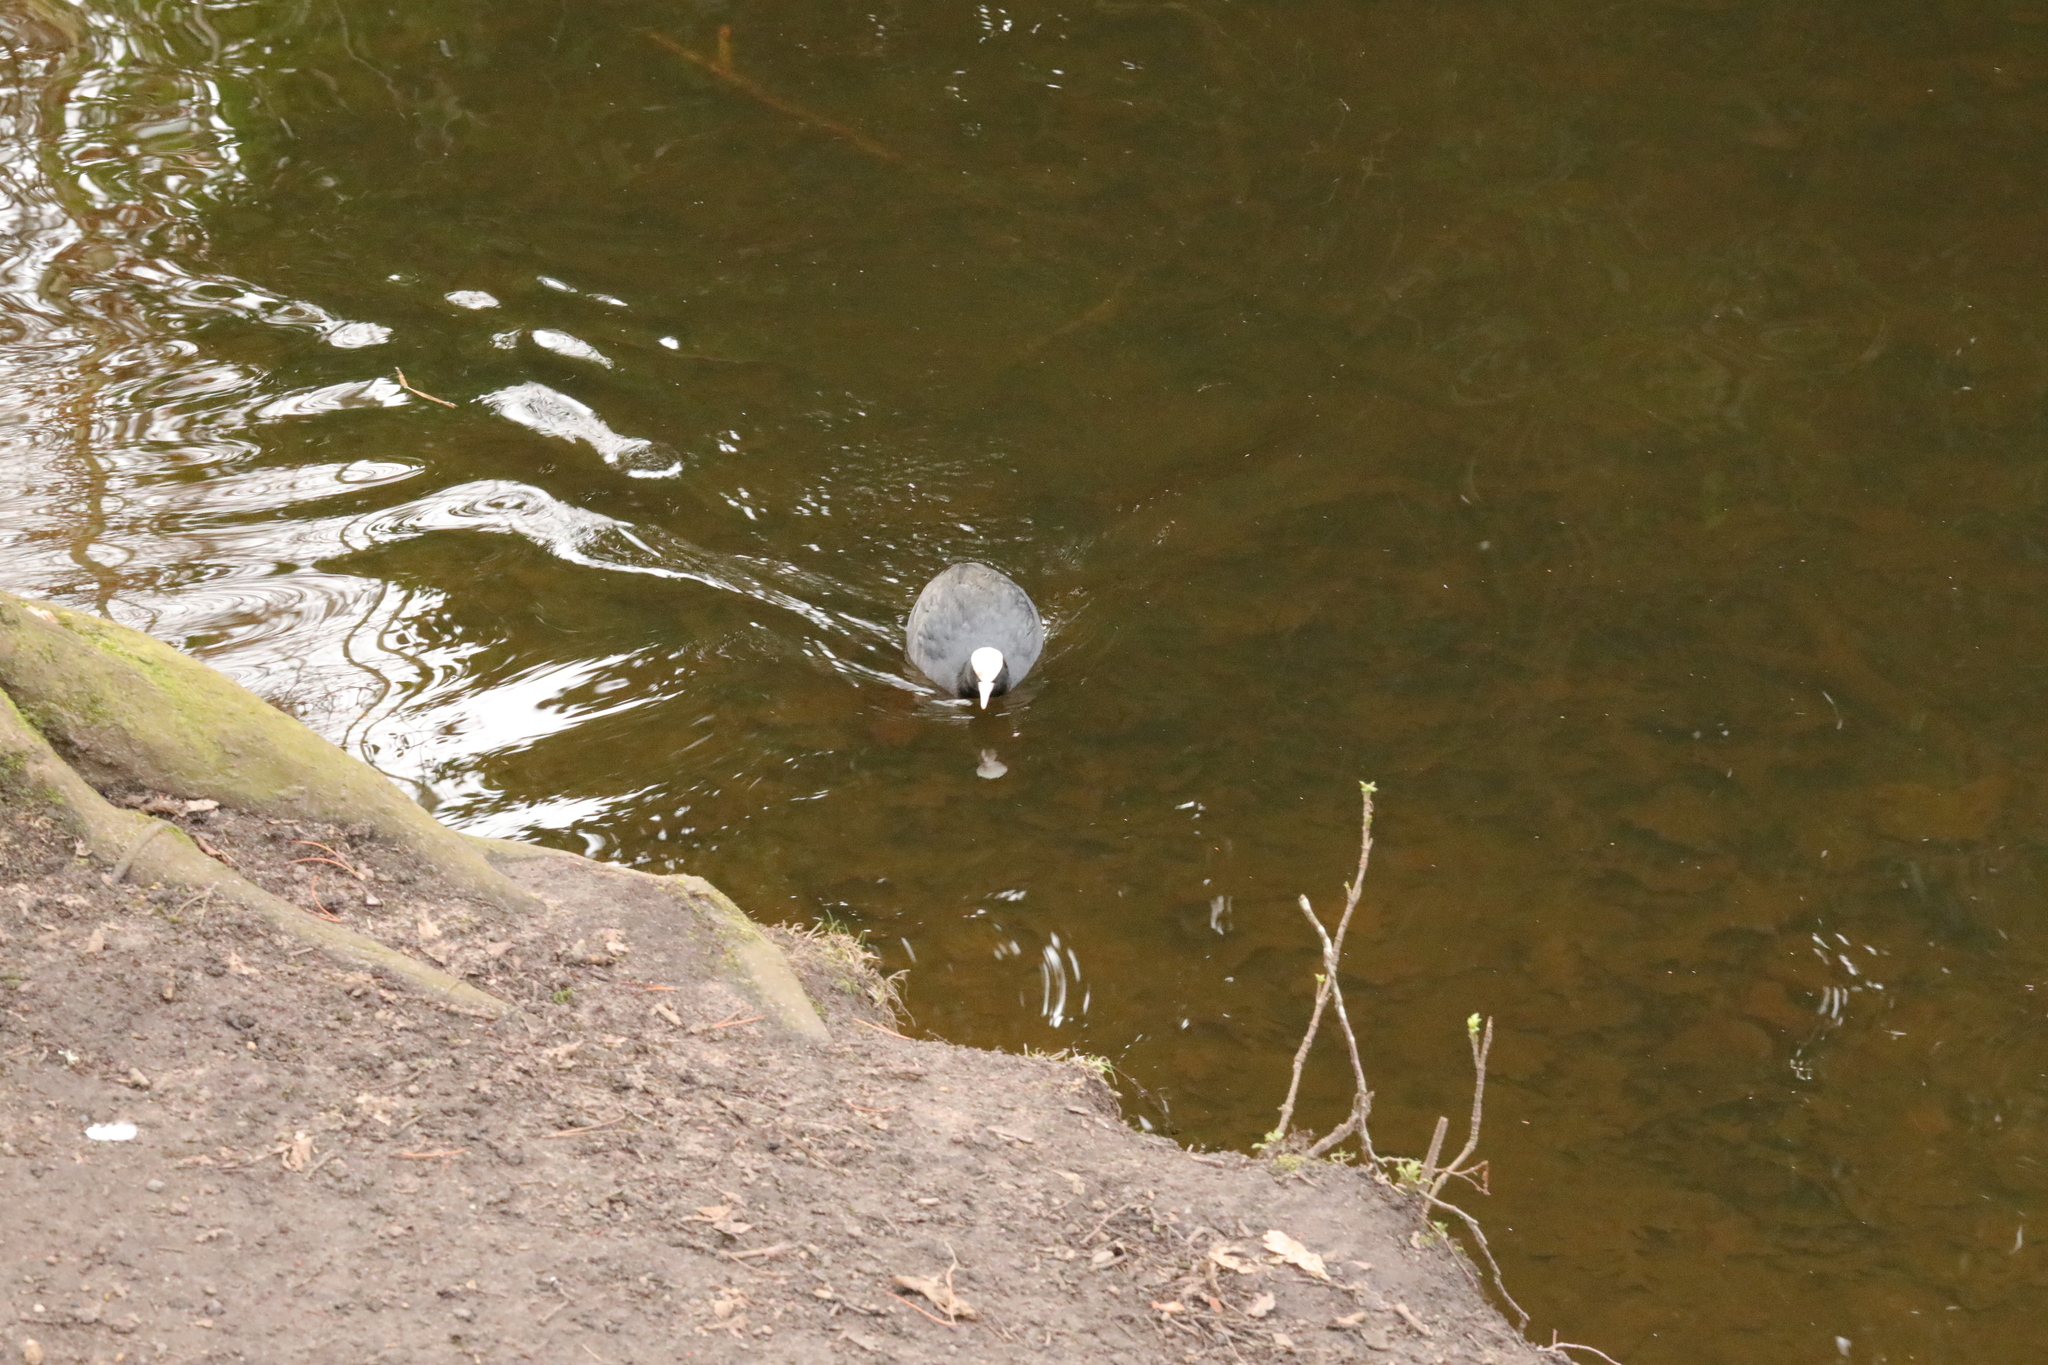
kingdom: Animalia
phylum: Chordata
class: Aves
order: Gruiformes
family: Rallidae
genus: Fulica
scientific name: Fulica atra
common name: Eurasian coot
